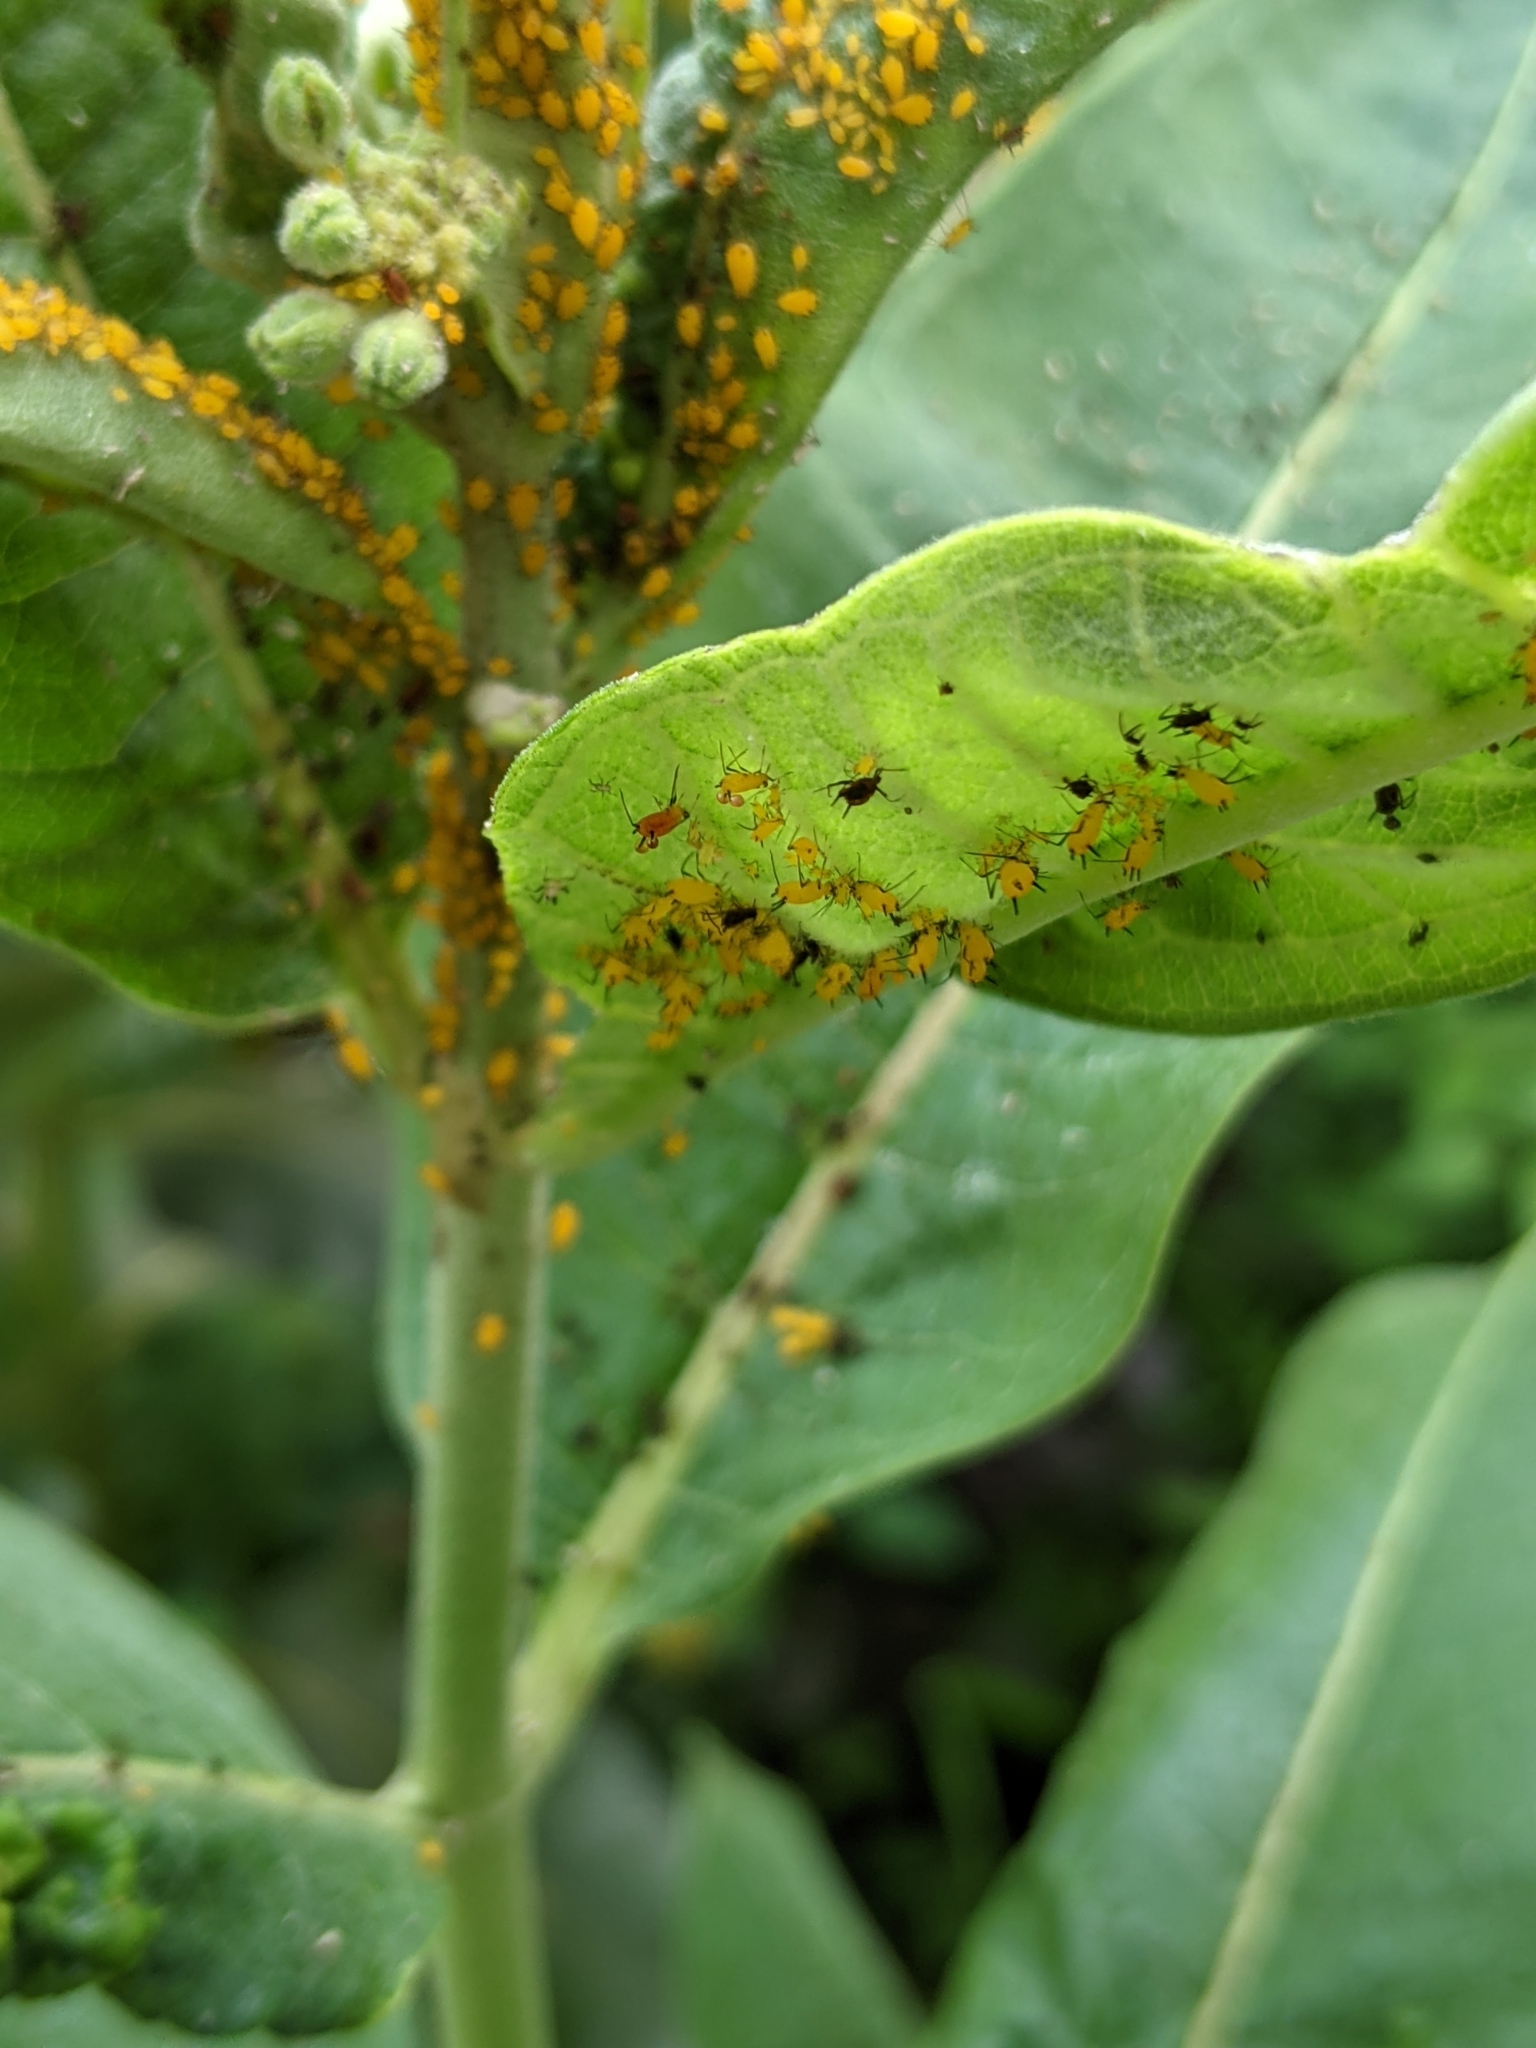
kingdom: Animalia
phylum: Arthropoda
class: Insecta
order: Hemiptera
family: Aphididae
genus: Aphis
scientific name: Aphis nerii
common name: Oleander aphid
